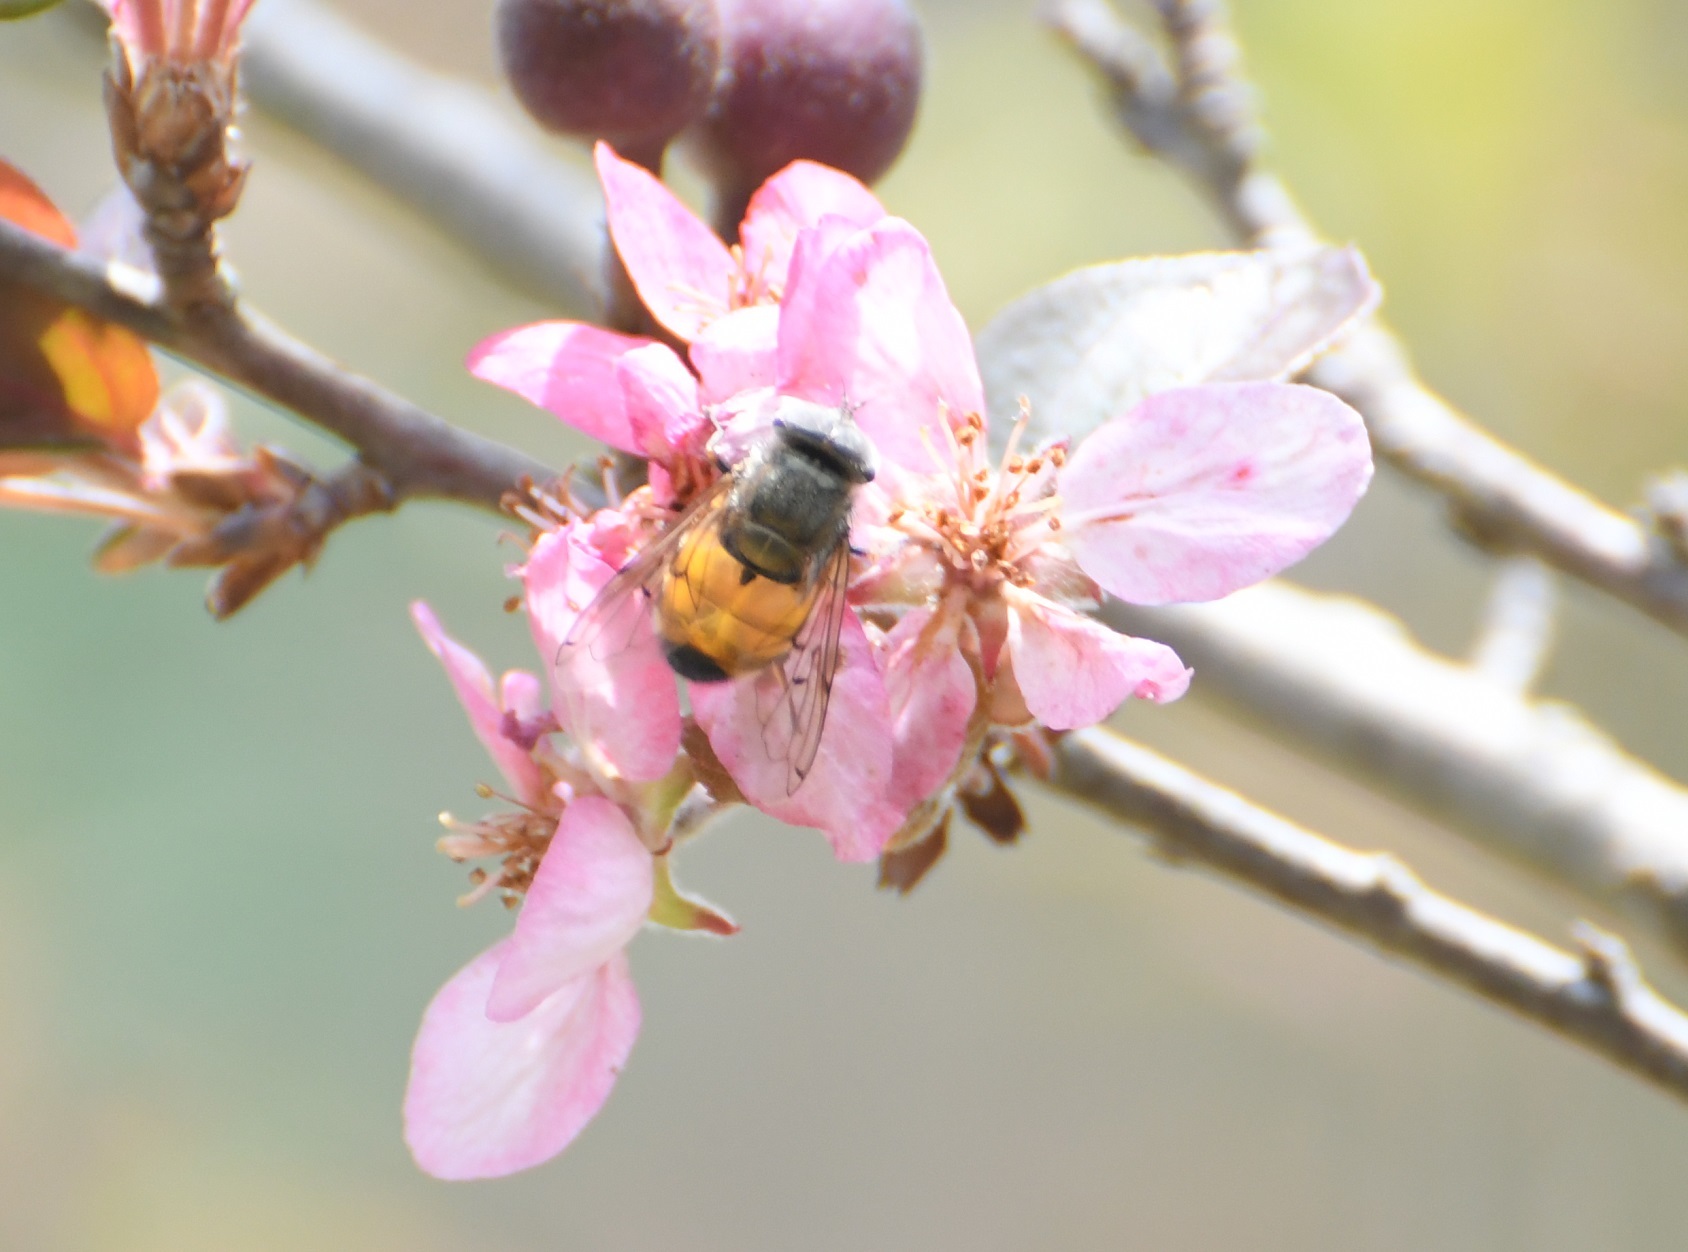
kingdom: Animalia
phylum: Arthropoda
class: Insecta
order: Diptera
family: Syrphidae
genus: Copestylum
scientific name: Copestylum haagii
